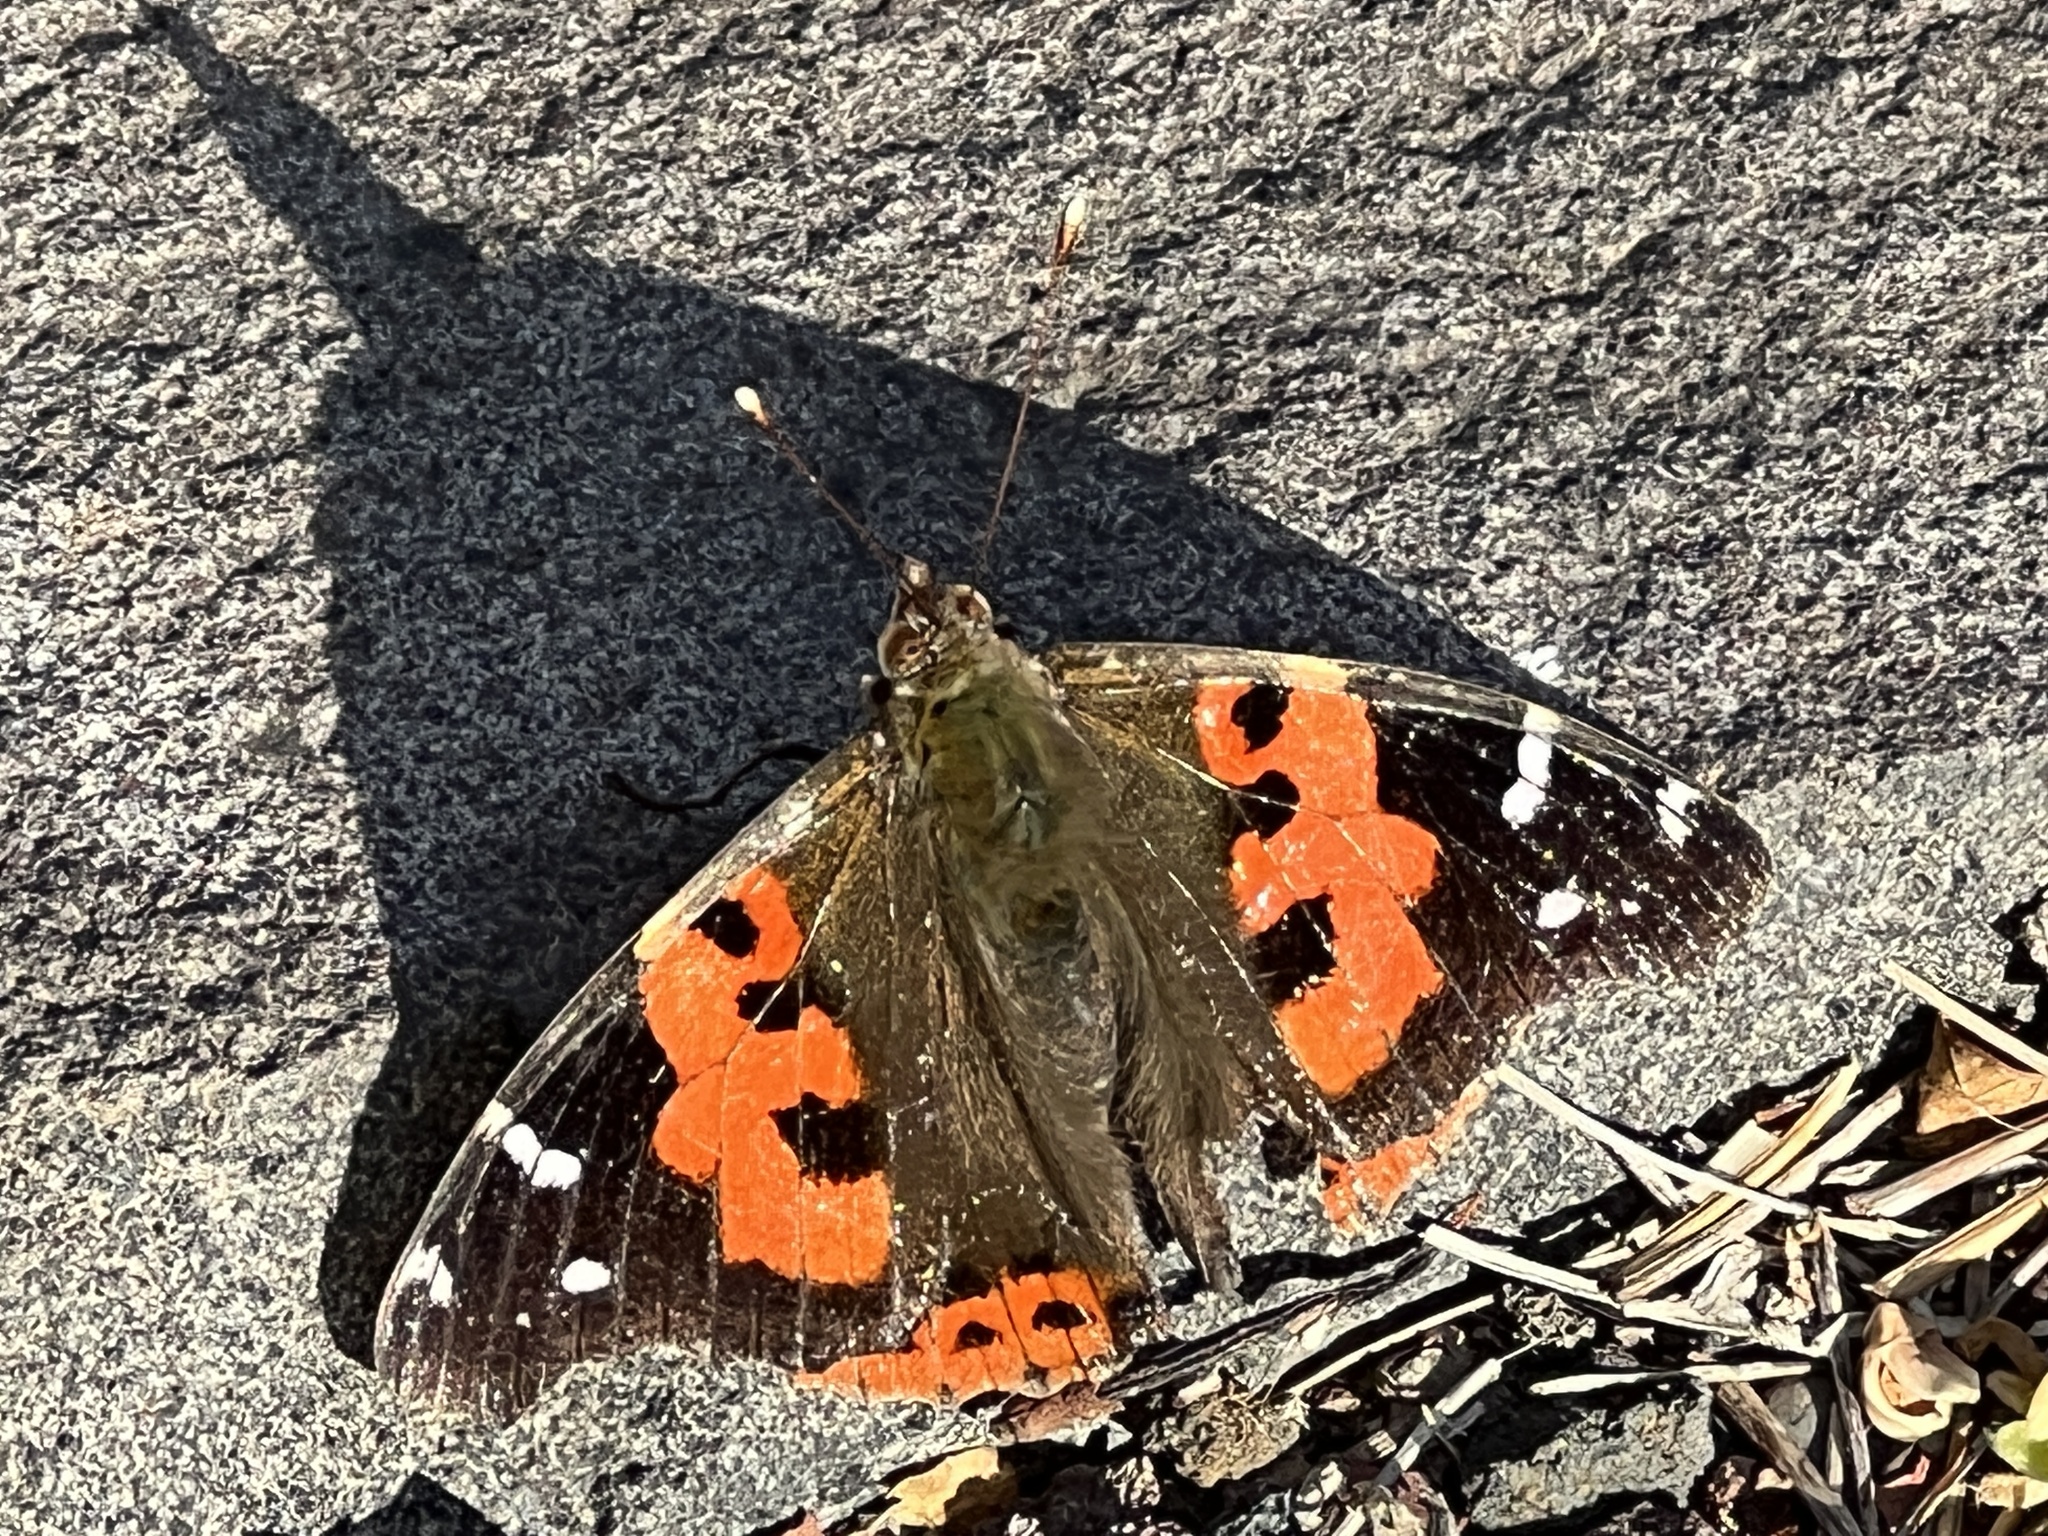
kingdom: Animalia
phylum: Arthropoda
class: Insecta
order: Lepidoptera
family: Nymphalidae
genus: Vanessa
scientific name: Vanessa vulcania
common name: Canary red admiral
